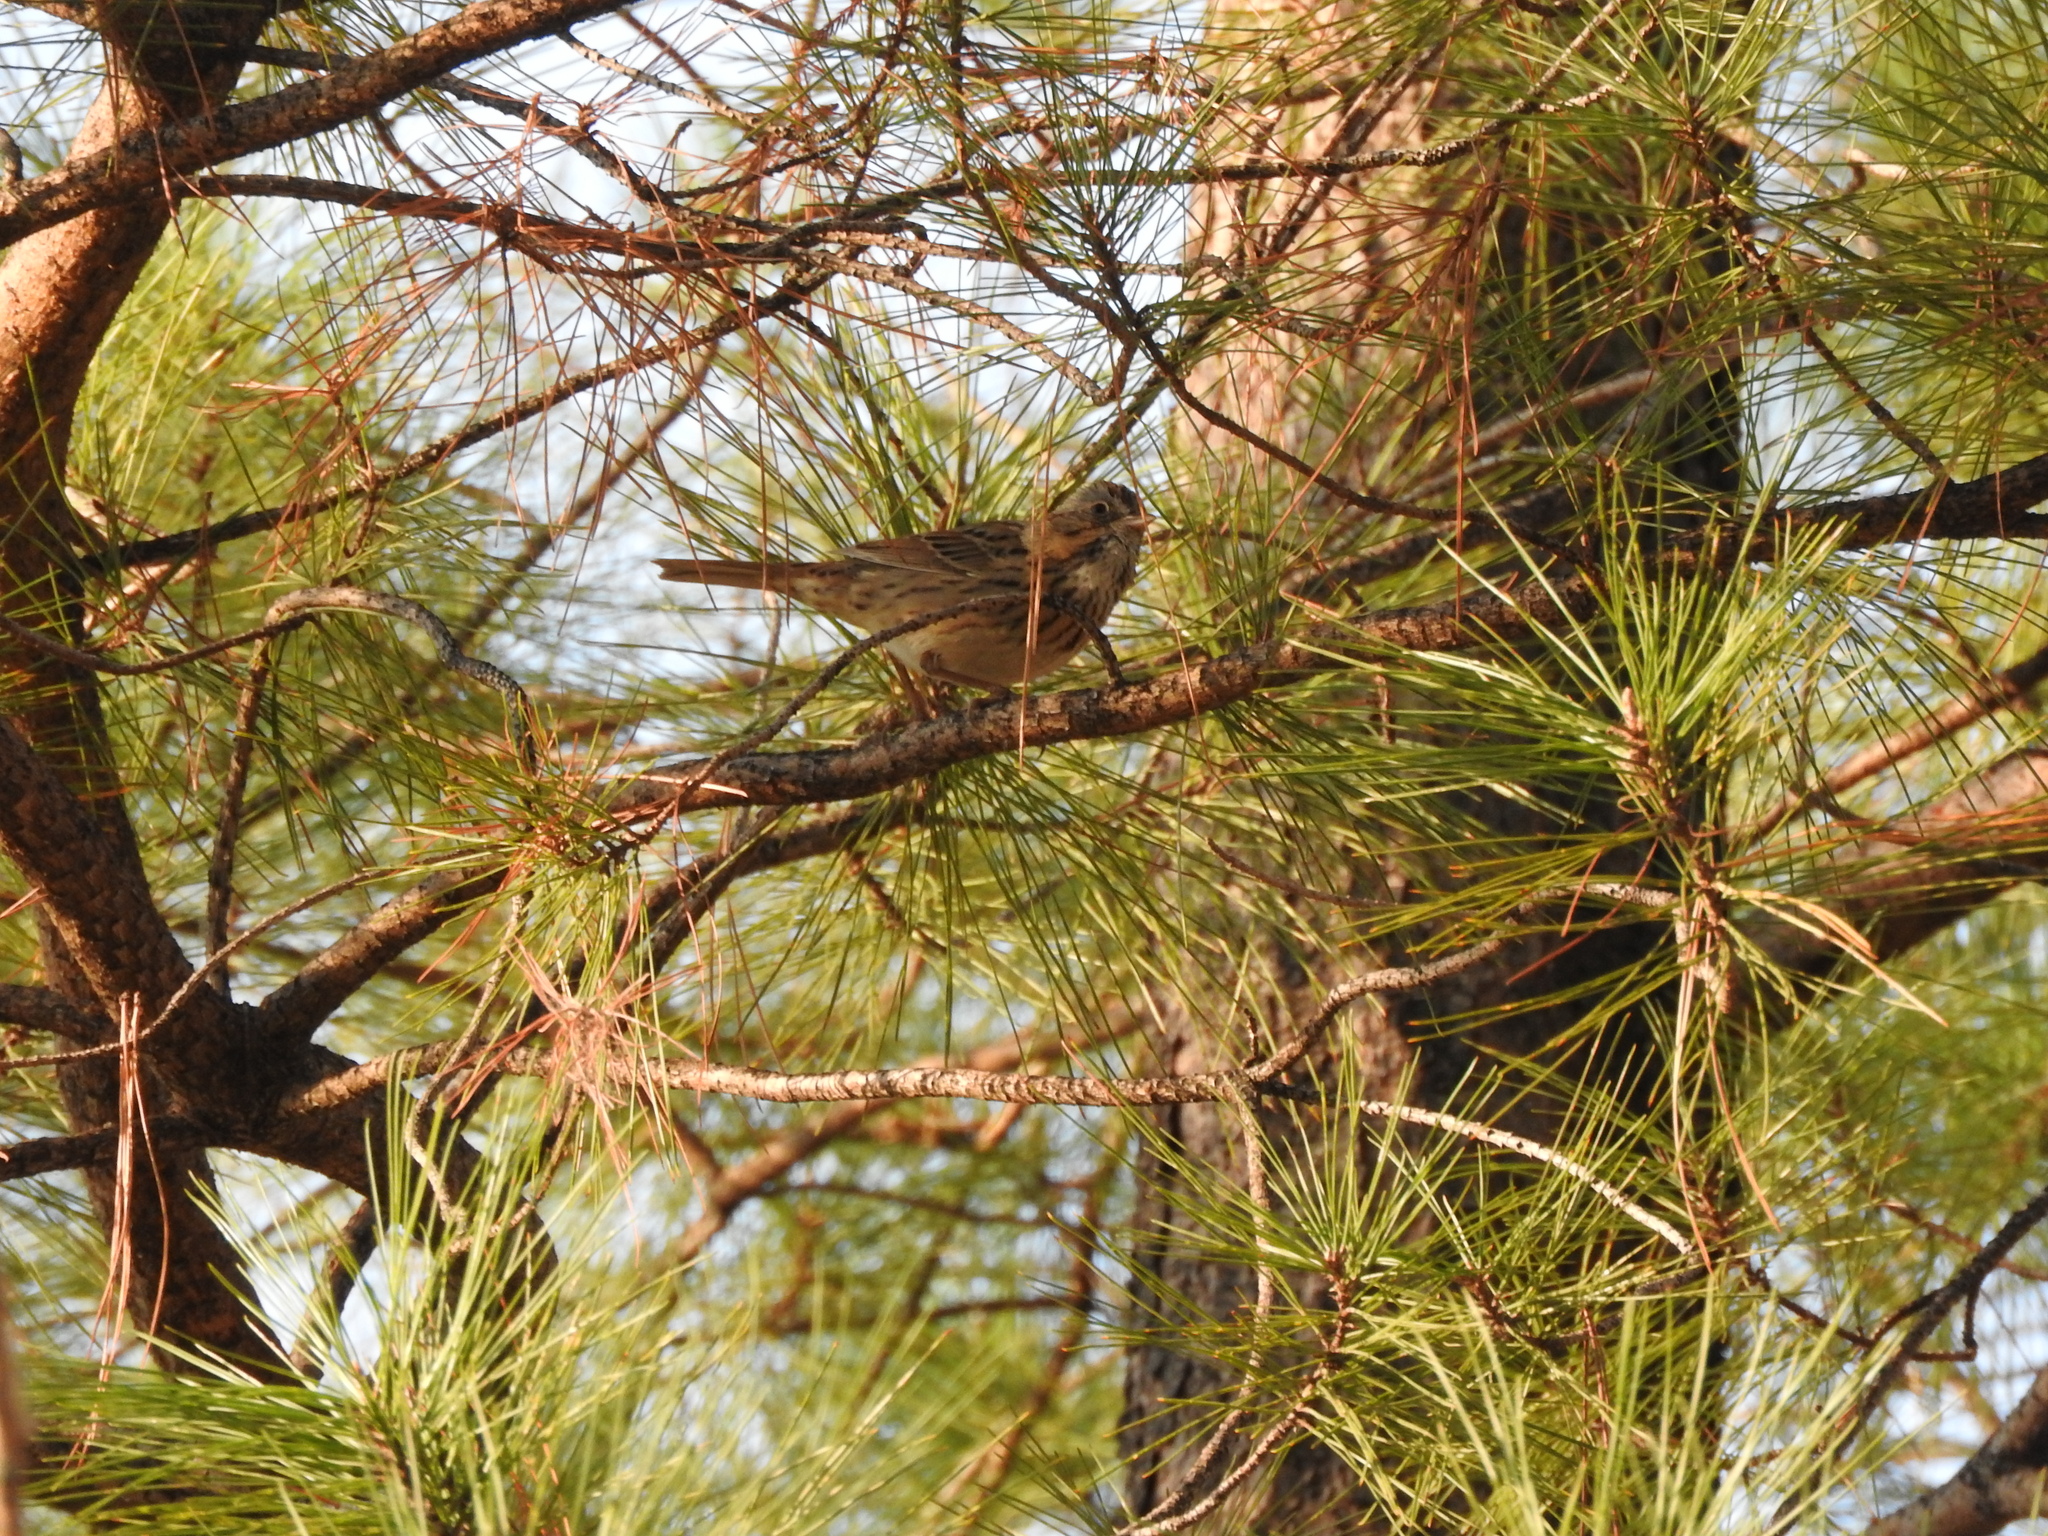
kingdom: Animalia
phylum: Chordata
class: Aves
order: Passeriformes
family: Passerellidae
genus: Melospiza
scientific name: Melospiza lincolnii
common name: Lincoln's sparrow
